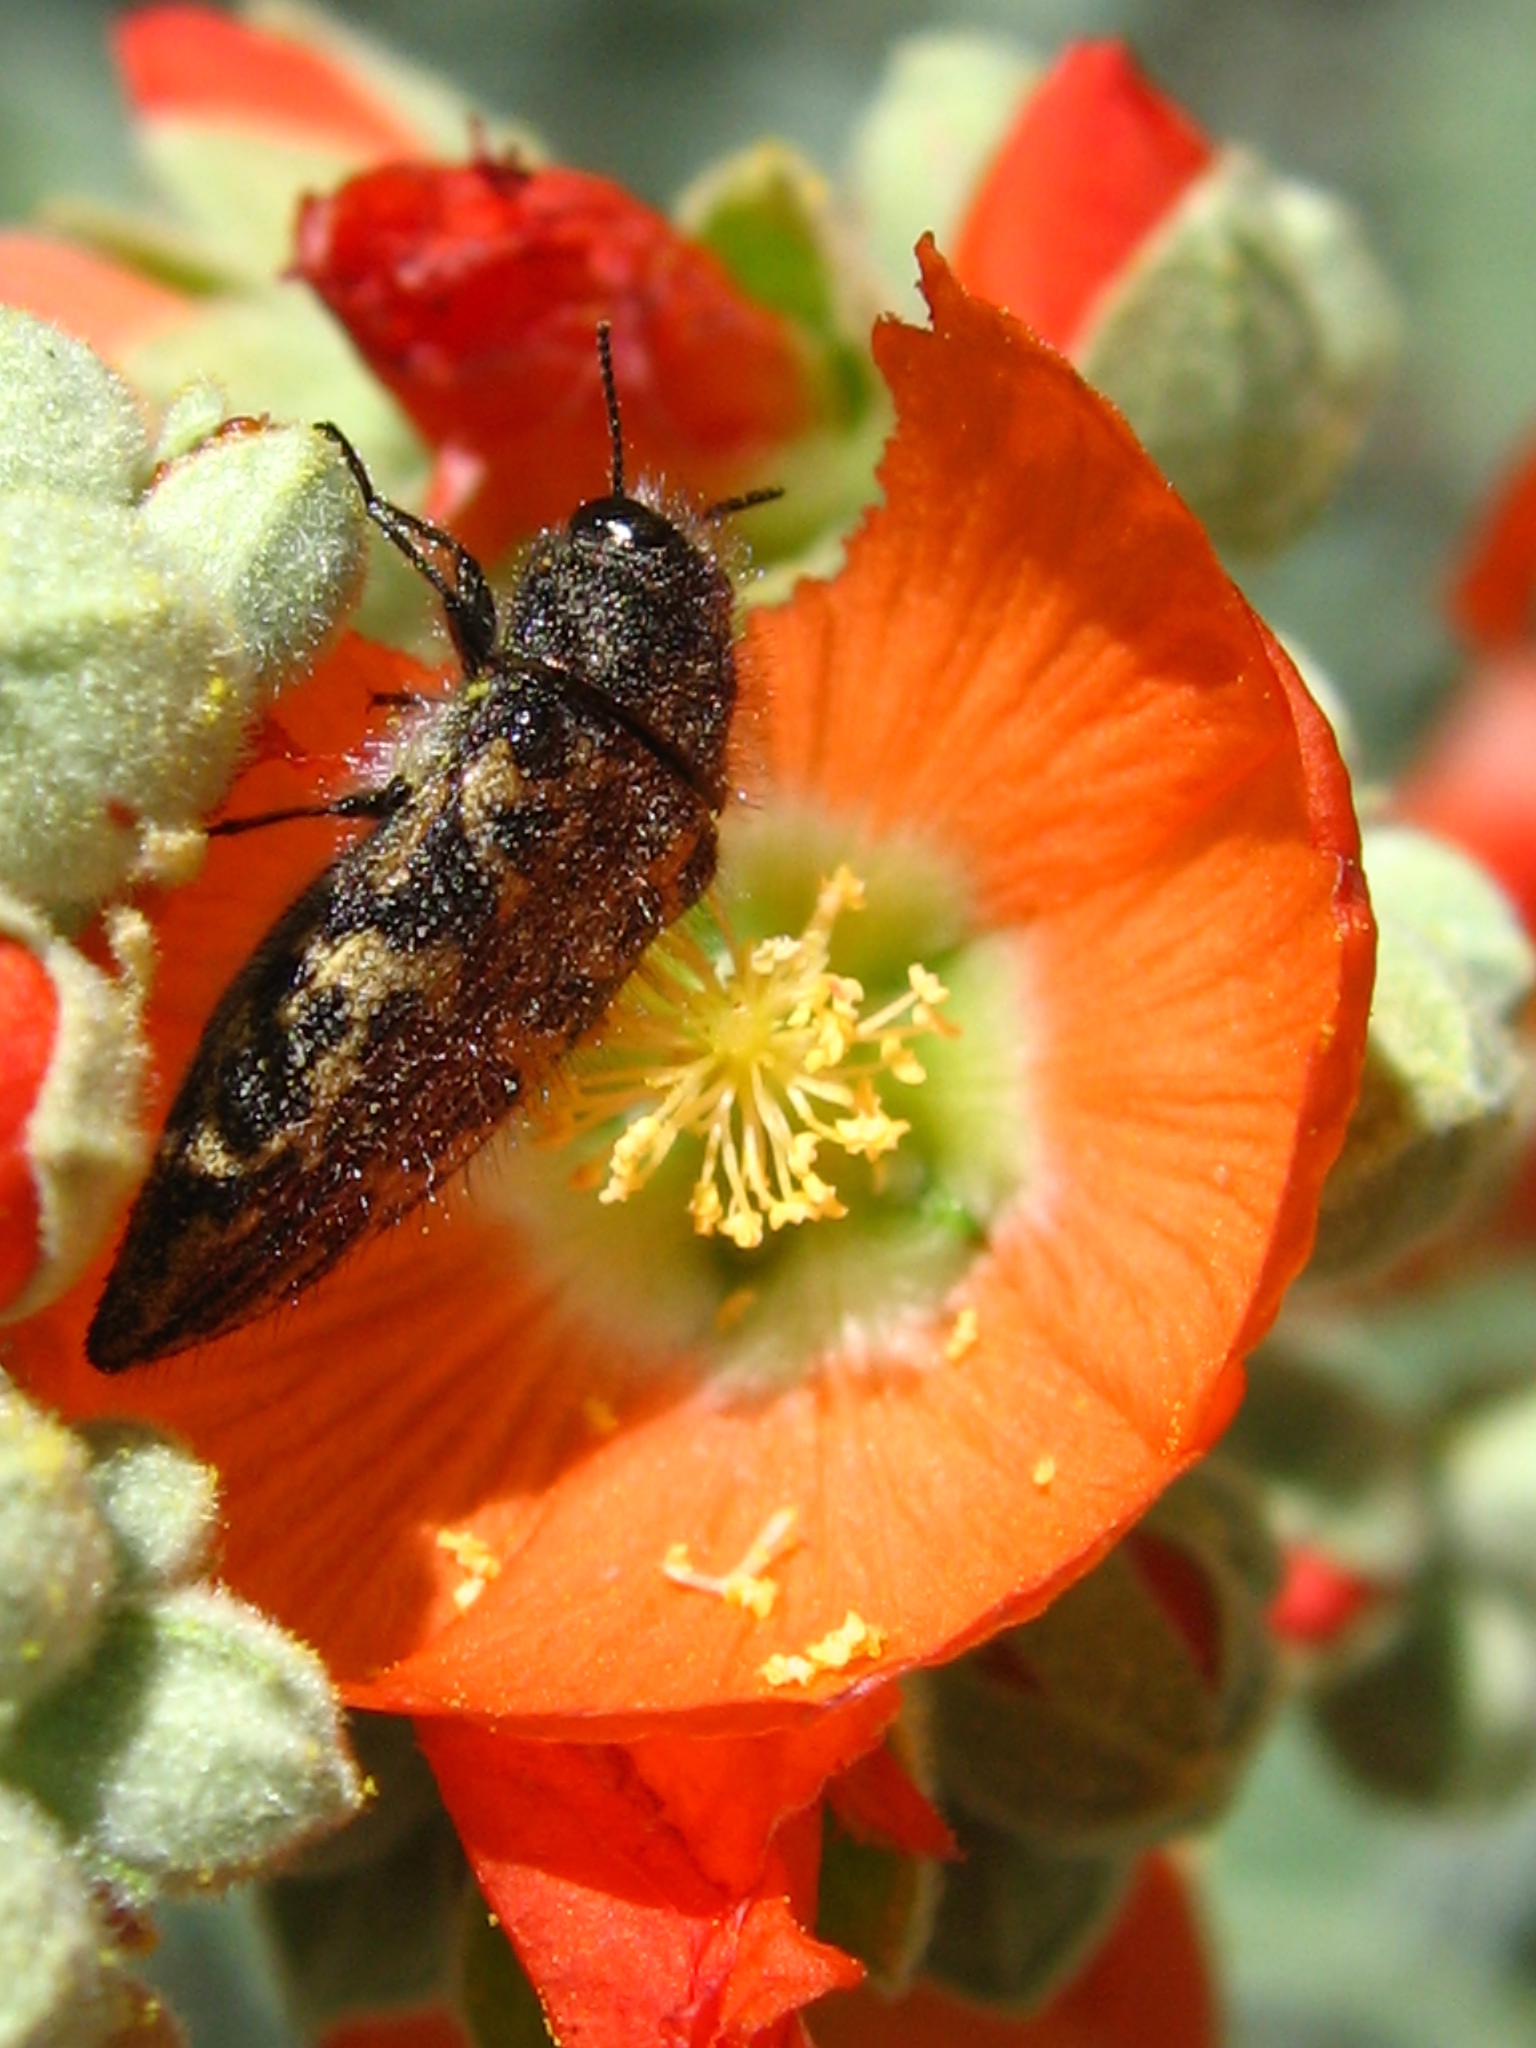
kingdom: Animalia
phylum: Arthropoda
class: Insecta
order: Coleoptera
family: Buprestidae
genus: Acmaeodera
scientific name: Acmaeodera cuneata
